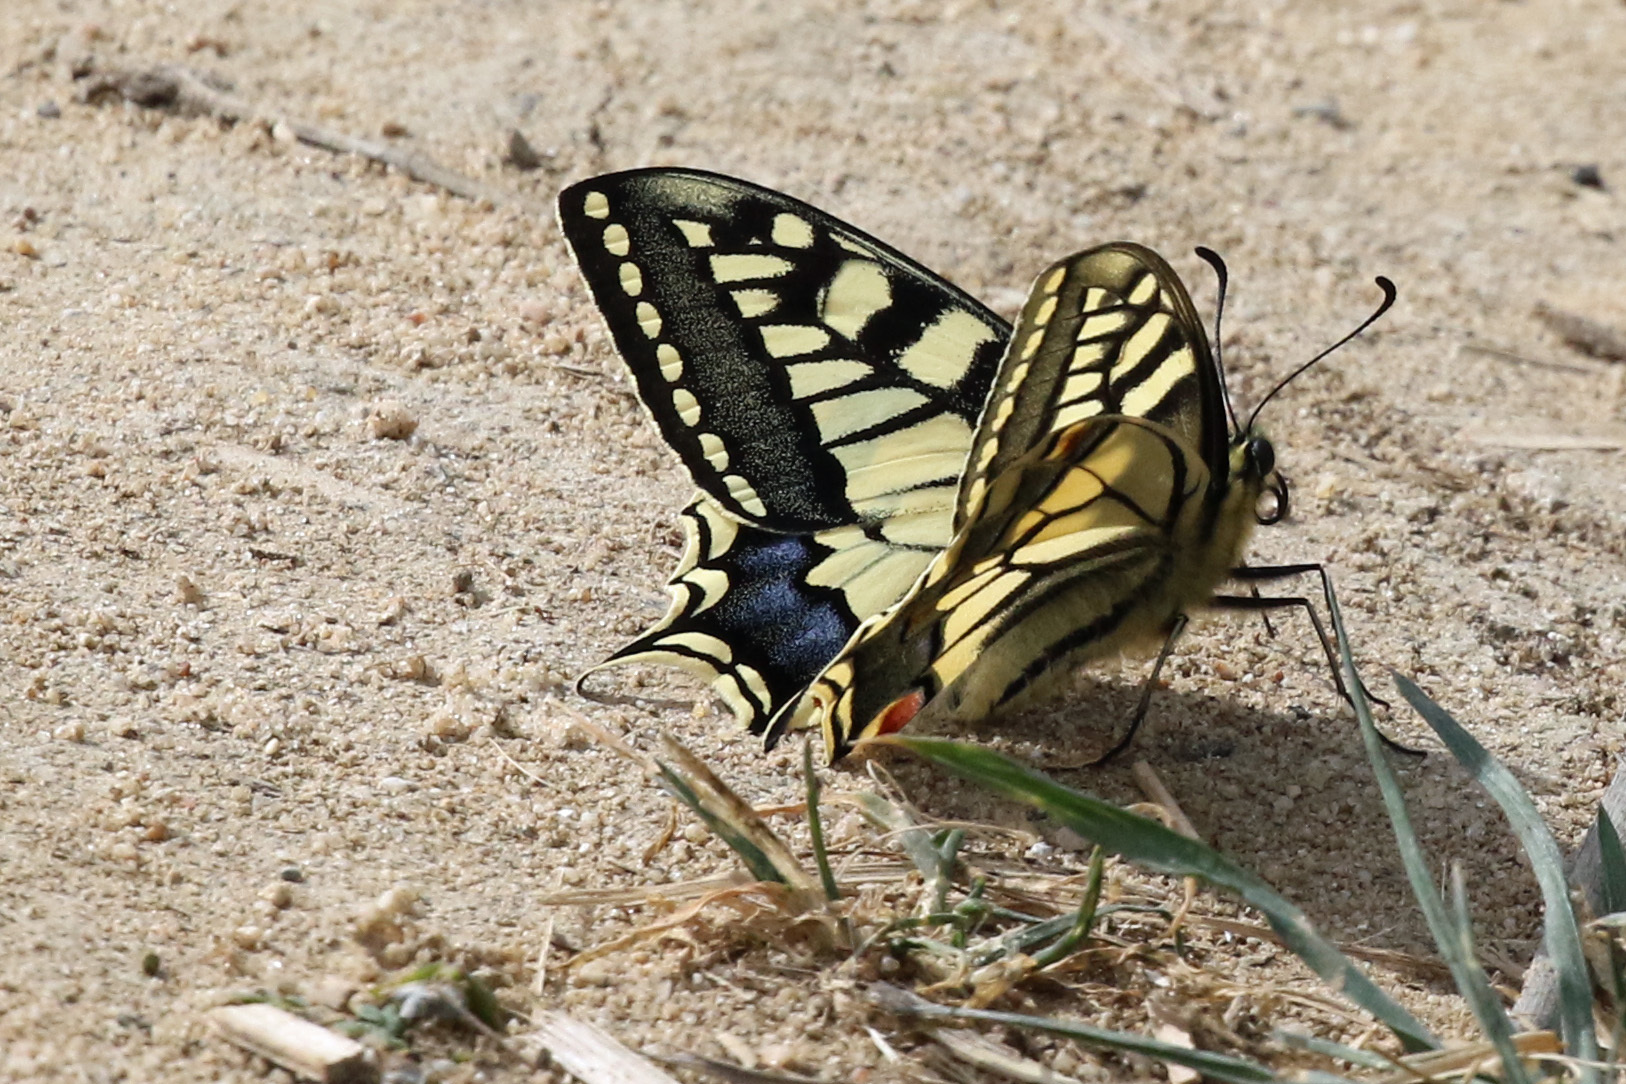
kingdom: Animalia
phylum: Arthropoda
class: Insecta
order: Lepidoptera
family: Papilionidae
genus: Papilio
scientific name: Papilio machaon
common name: Swallowtail
